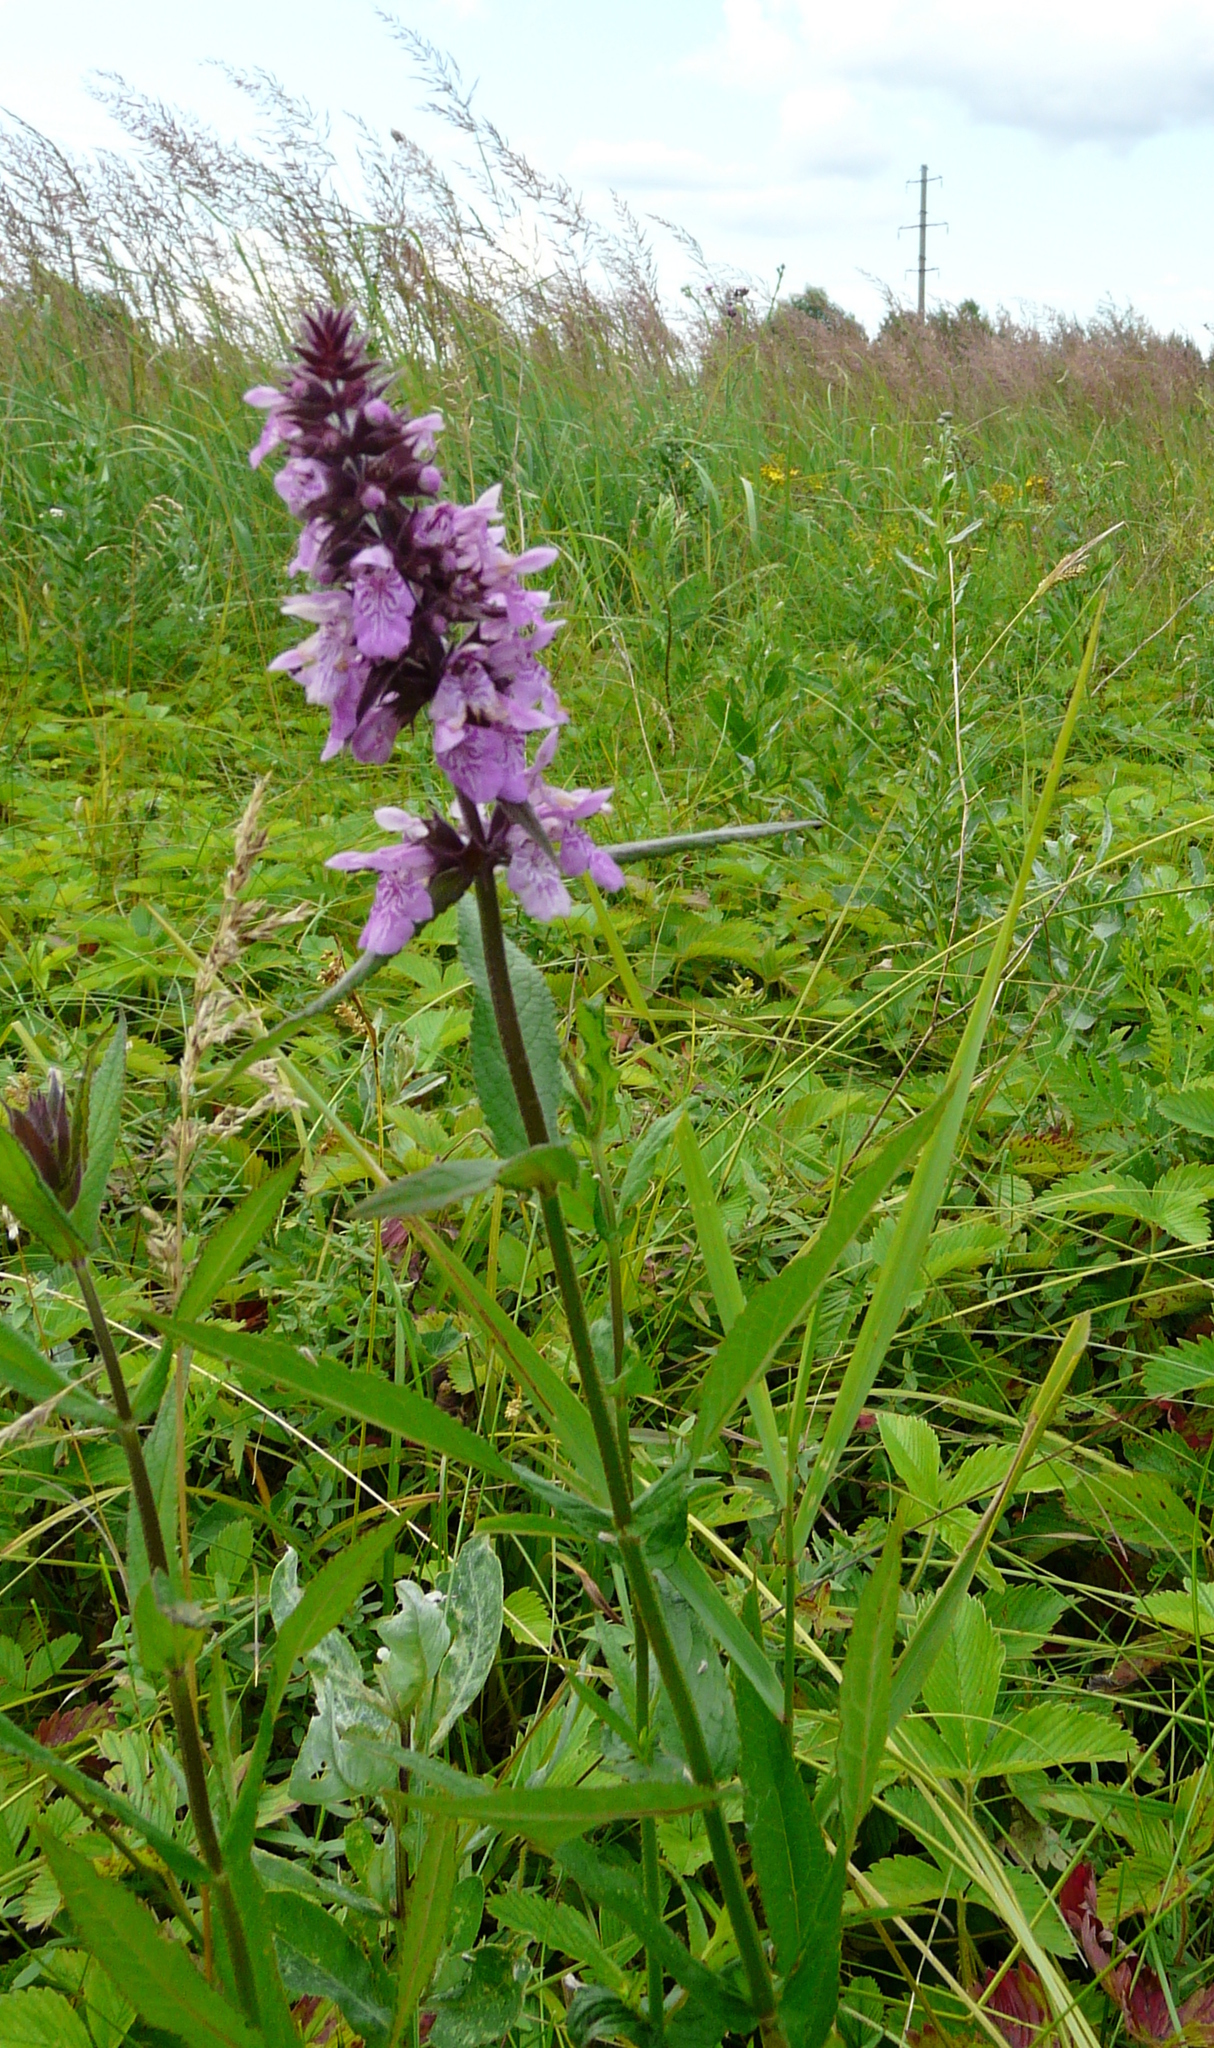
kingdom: Plantae
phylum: Tracheophyta
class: Magnoliopsida
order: Lamiales
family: Lamiaceae
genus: Stachys
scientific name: Stachys palustris
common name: Marsh woundwort
